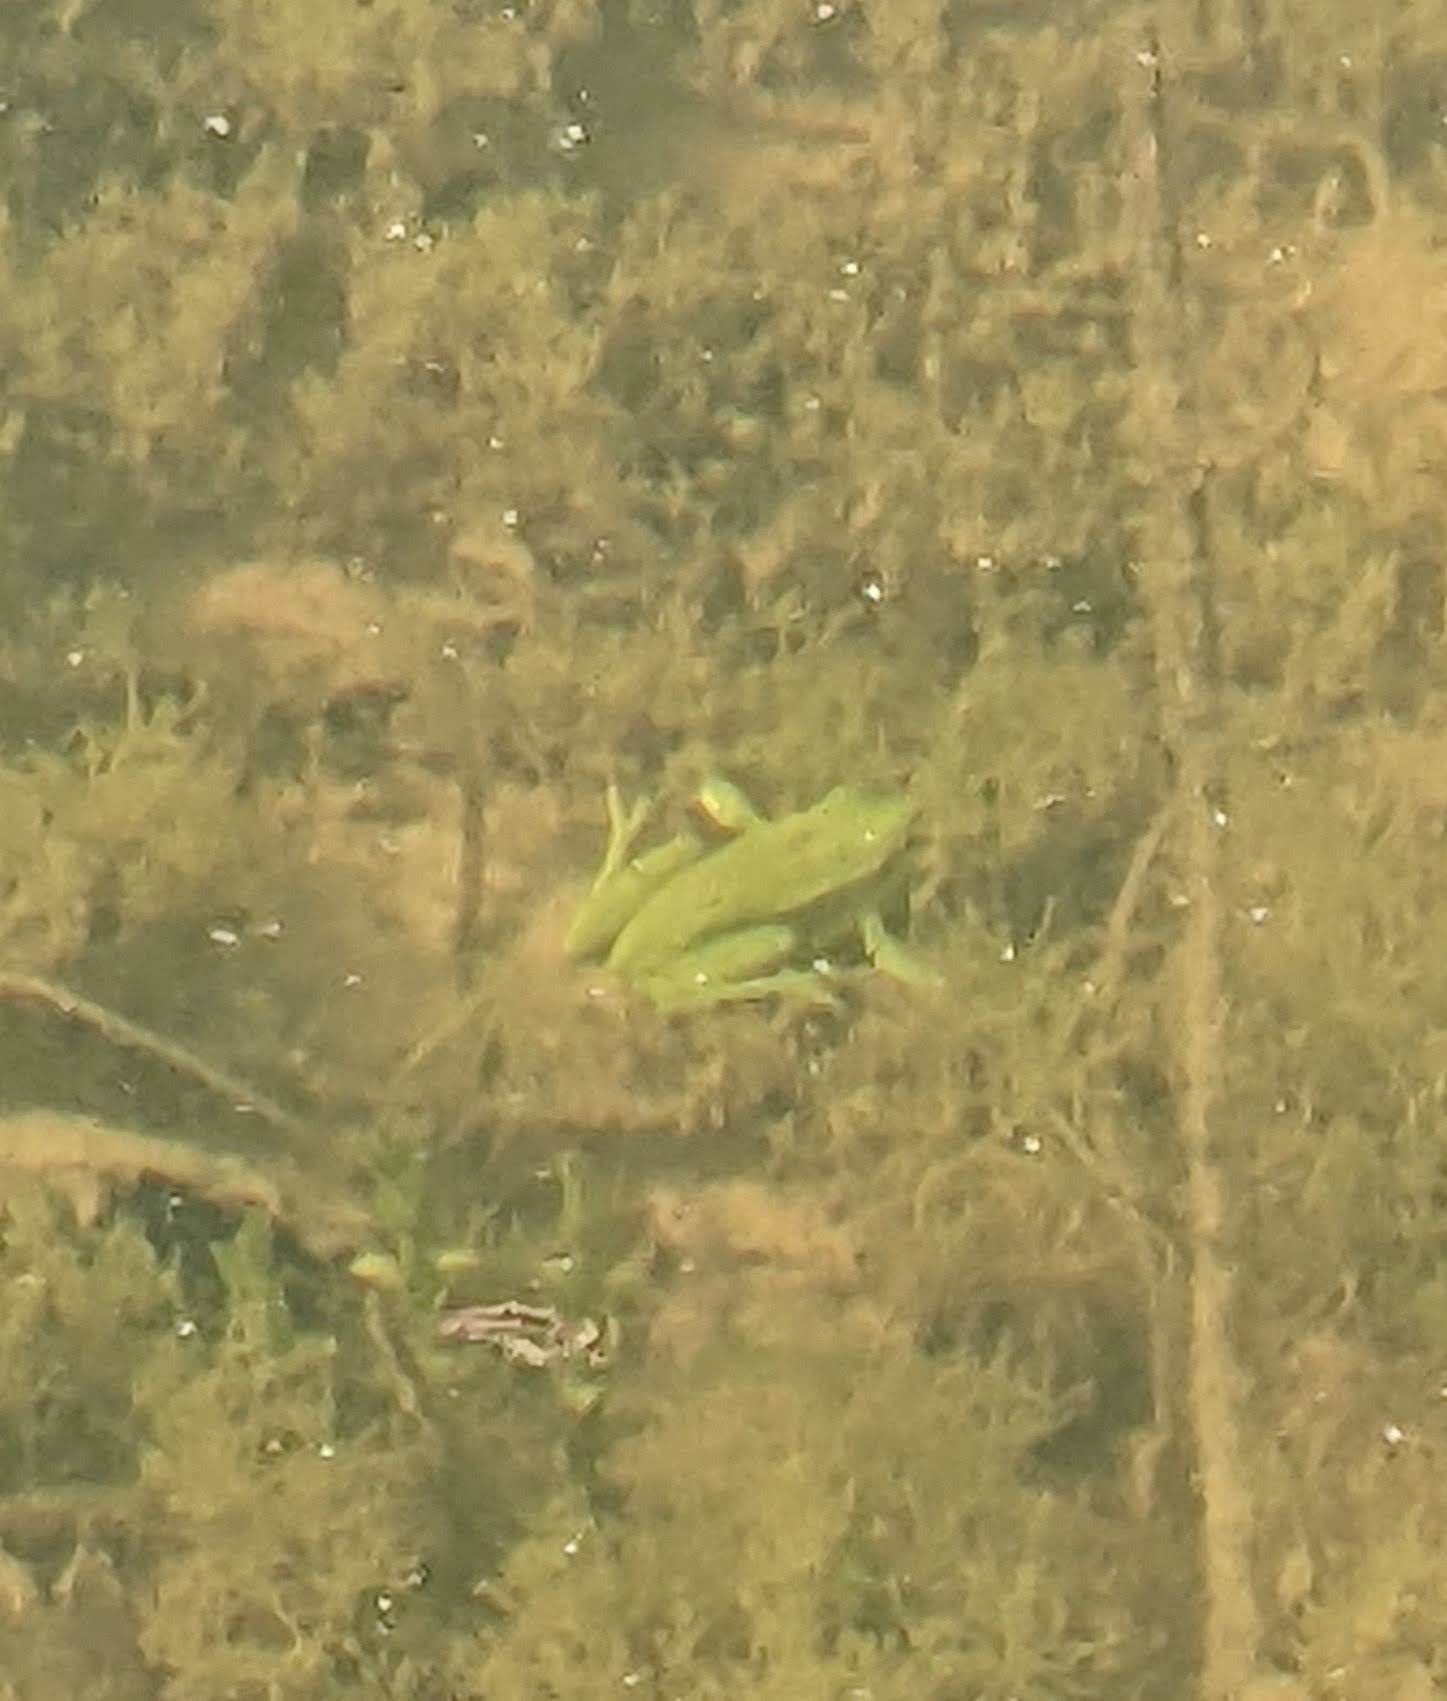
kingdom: Animalia
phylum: Chordata
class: Amphibia
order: Anura
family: Hylidae
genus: Hyla
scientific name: Hyla meridionalis
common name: Stripeless tree frog
